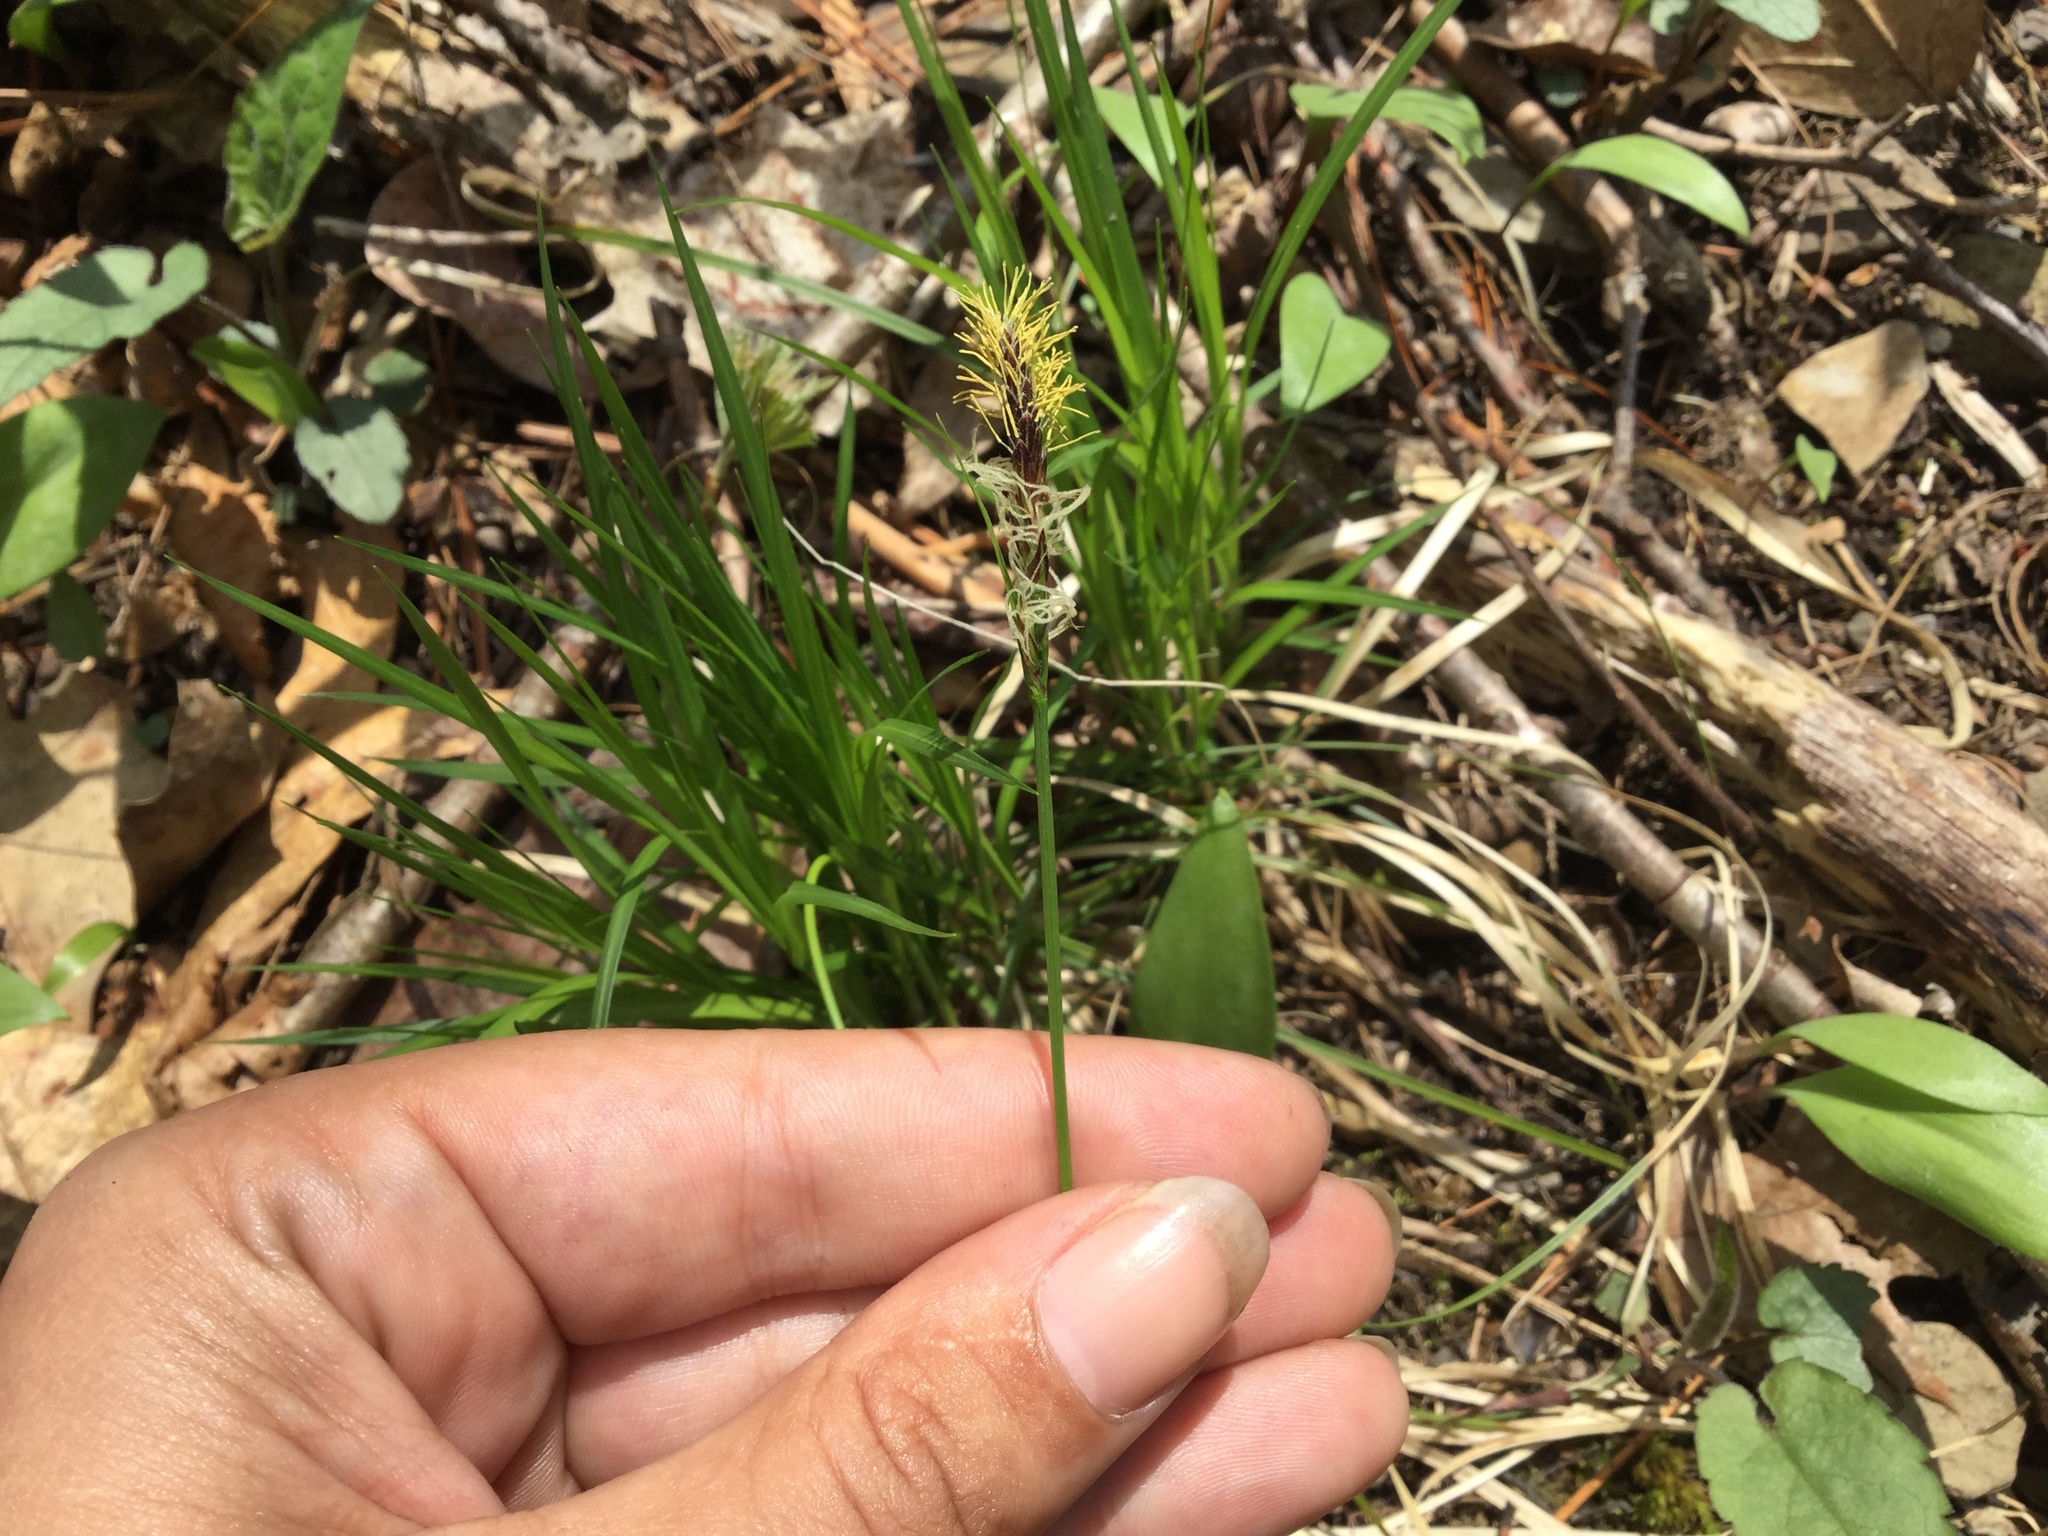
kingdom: Plantae
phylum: Tracheophyta
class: Liliopsida
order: Poales
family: Cyperaceae
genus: Carex
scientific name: Carex pensylvanica
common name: Common oak sedge
